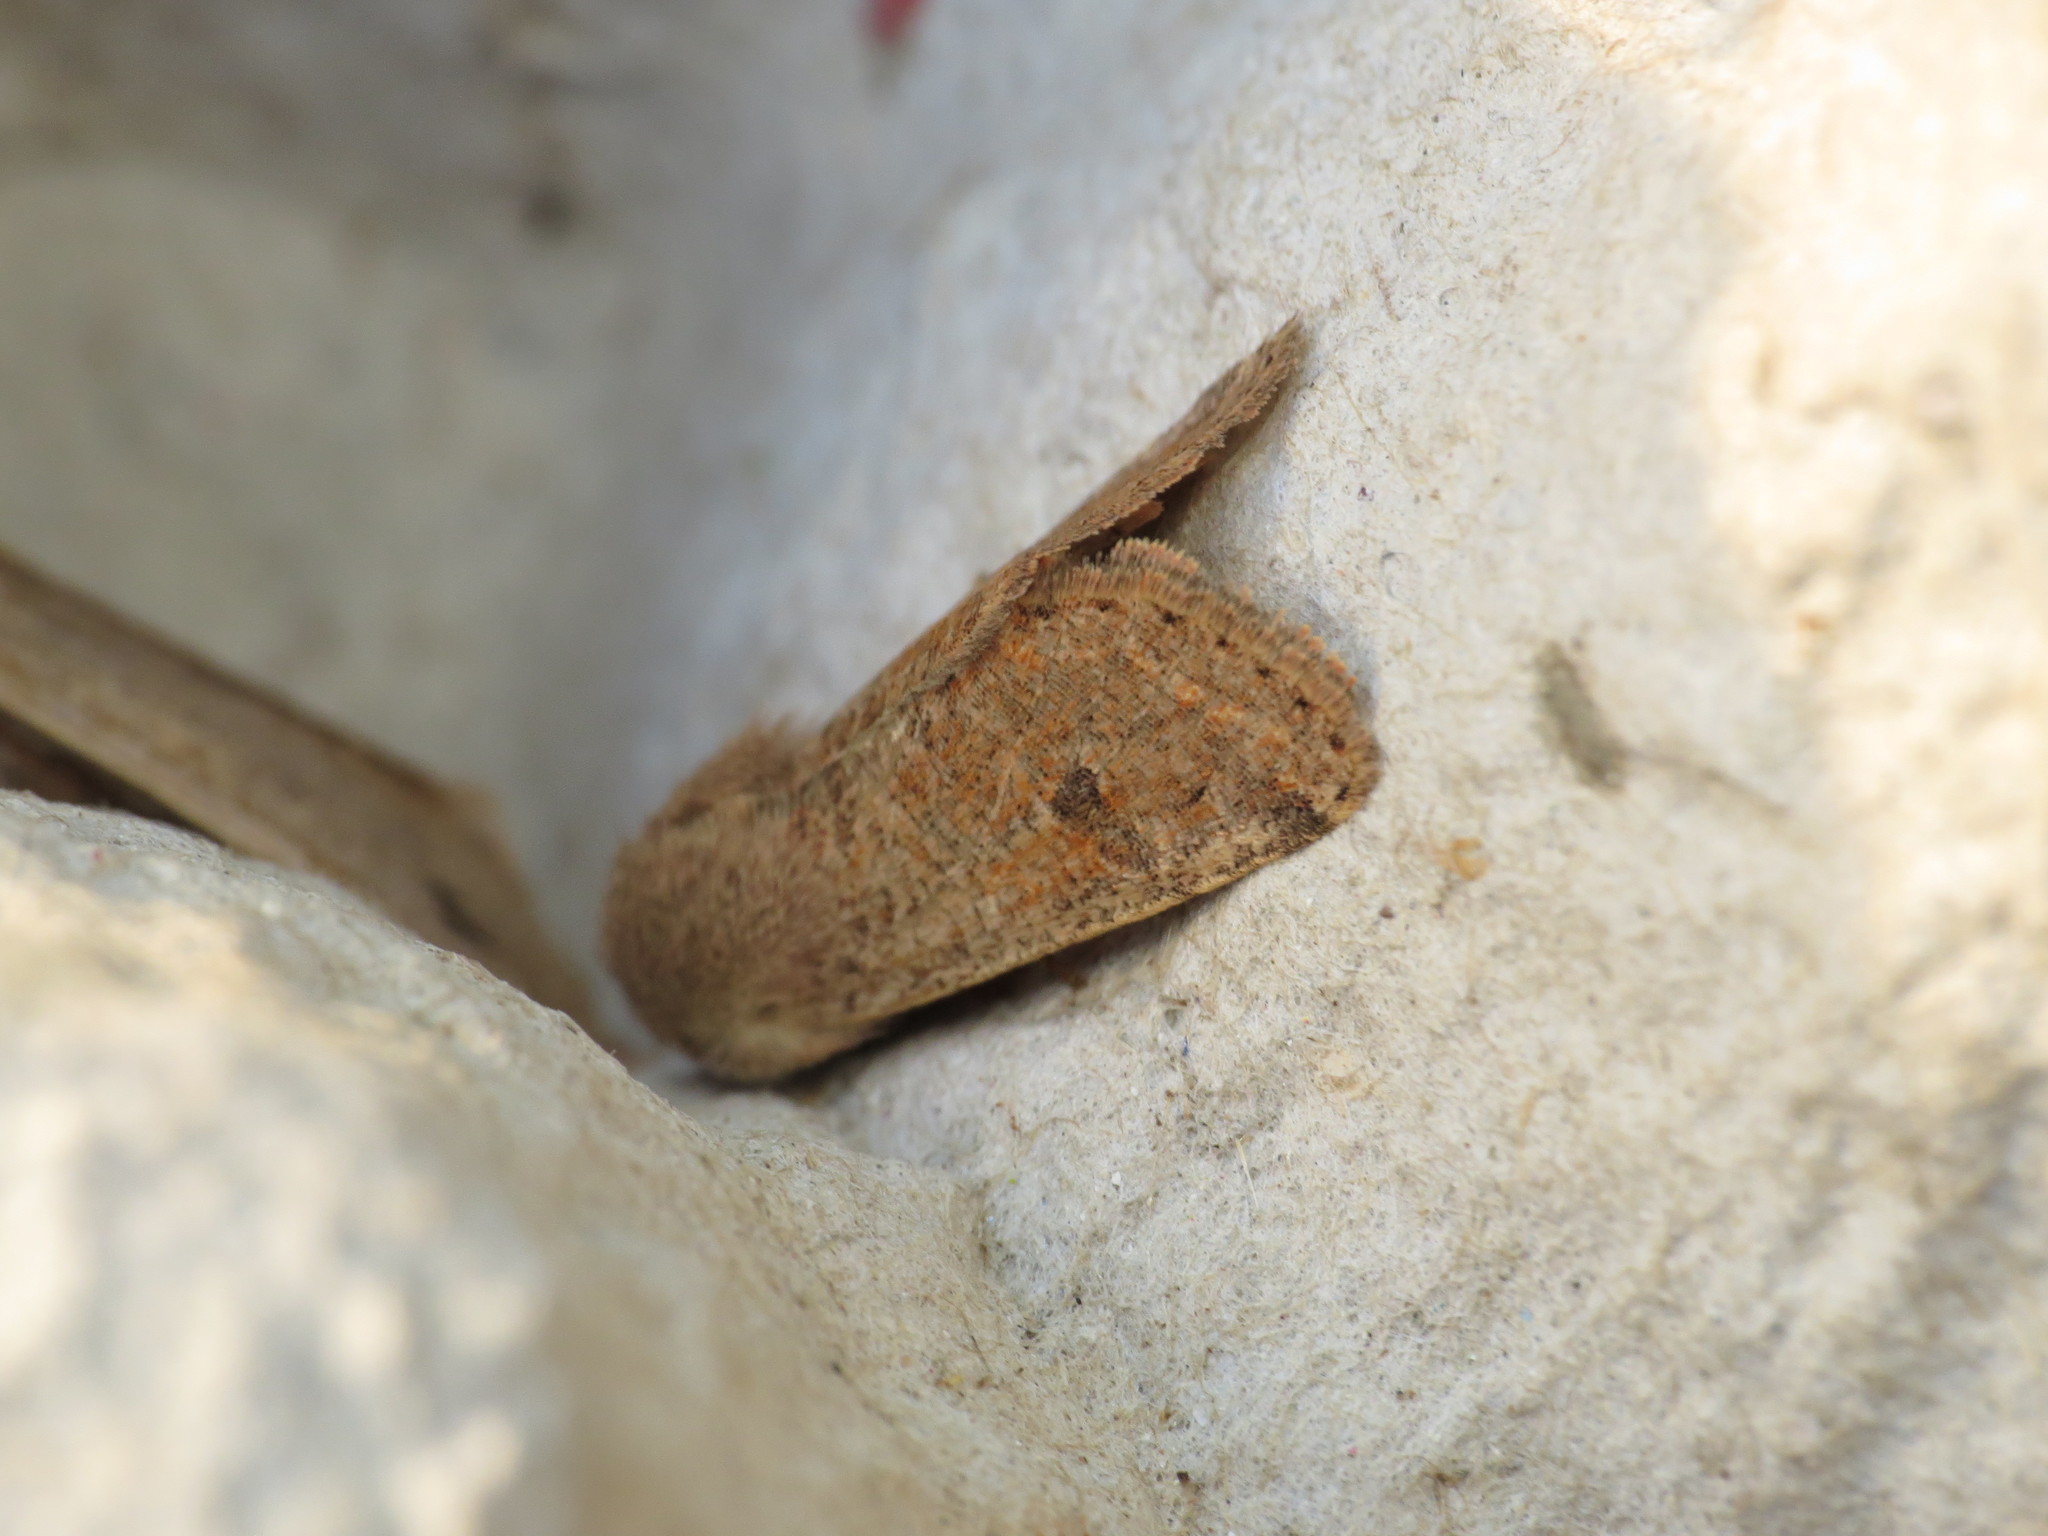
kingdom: Animalia
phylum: Arthropoda
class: Insecta
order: Lepidoptera
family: Noctuidae
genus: Orthosia
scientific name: Orthosia cruda
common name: Small quaker
